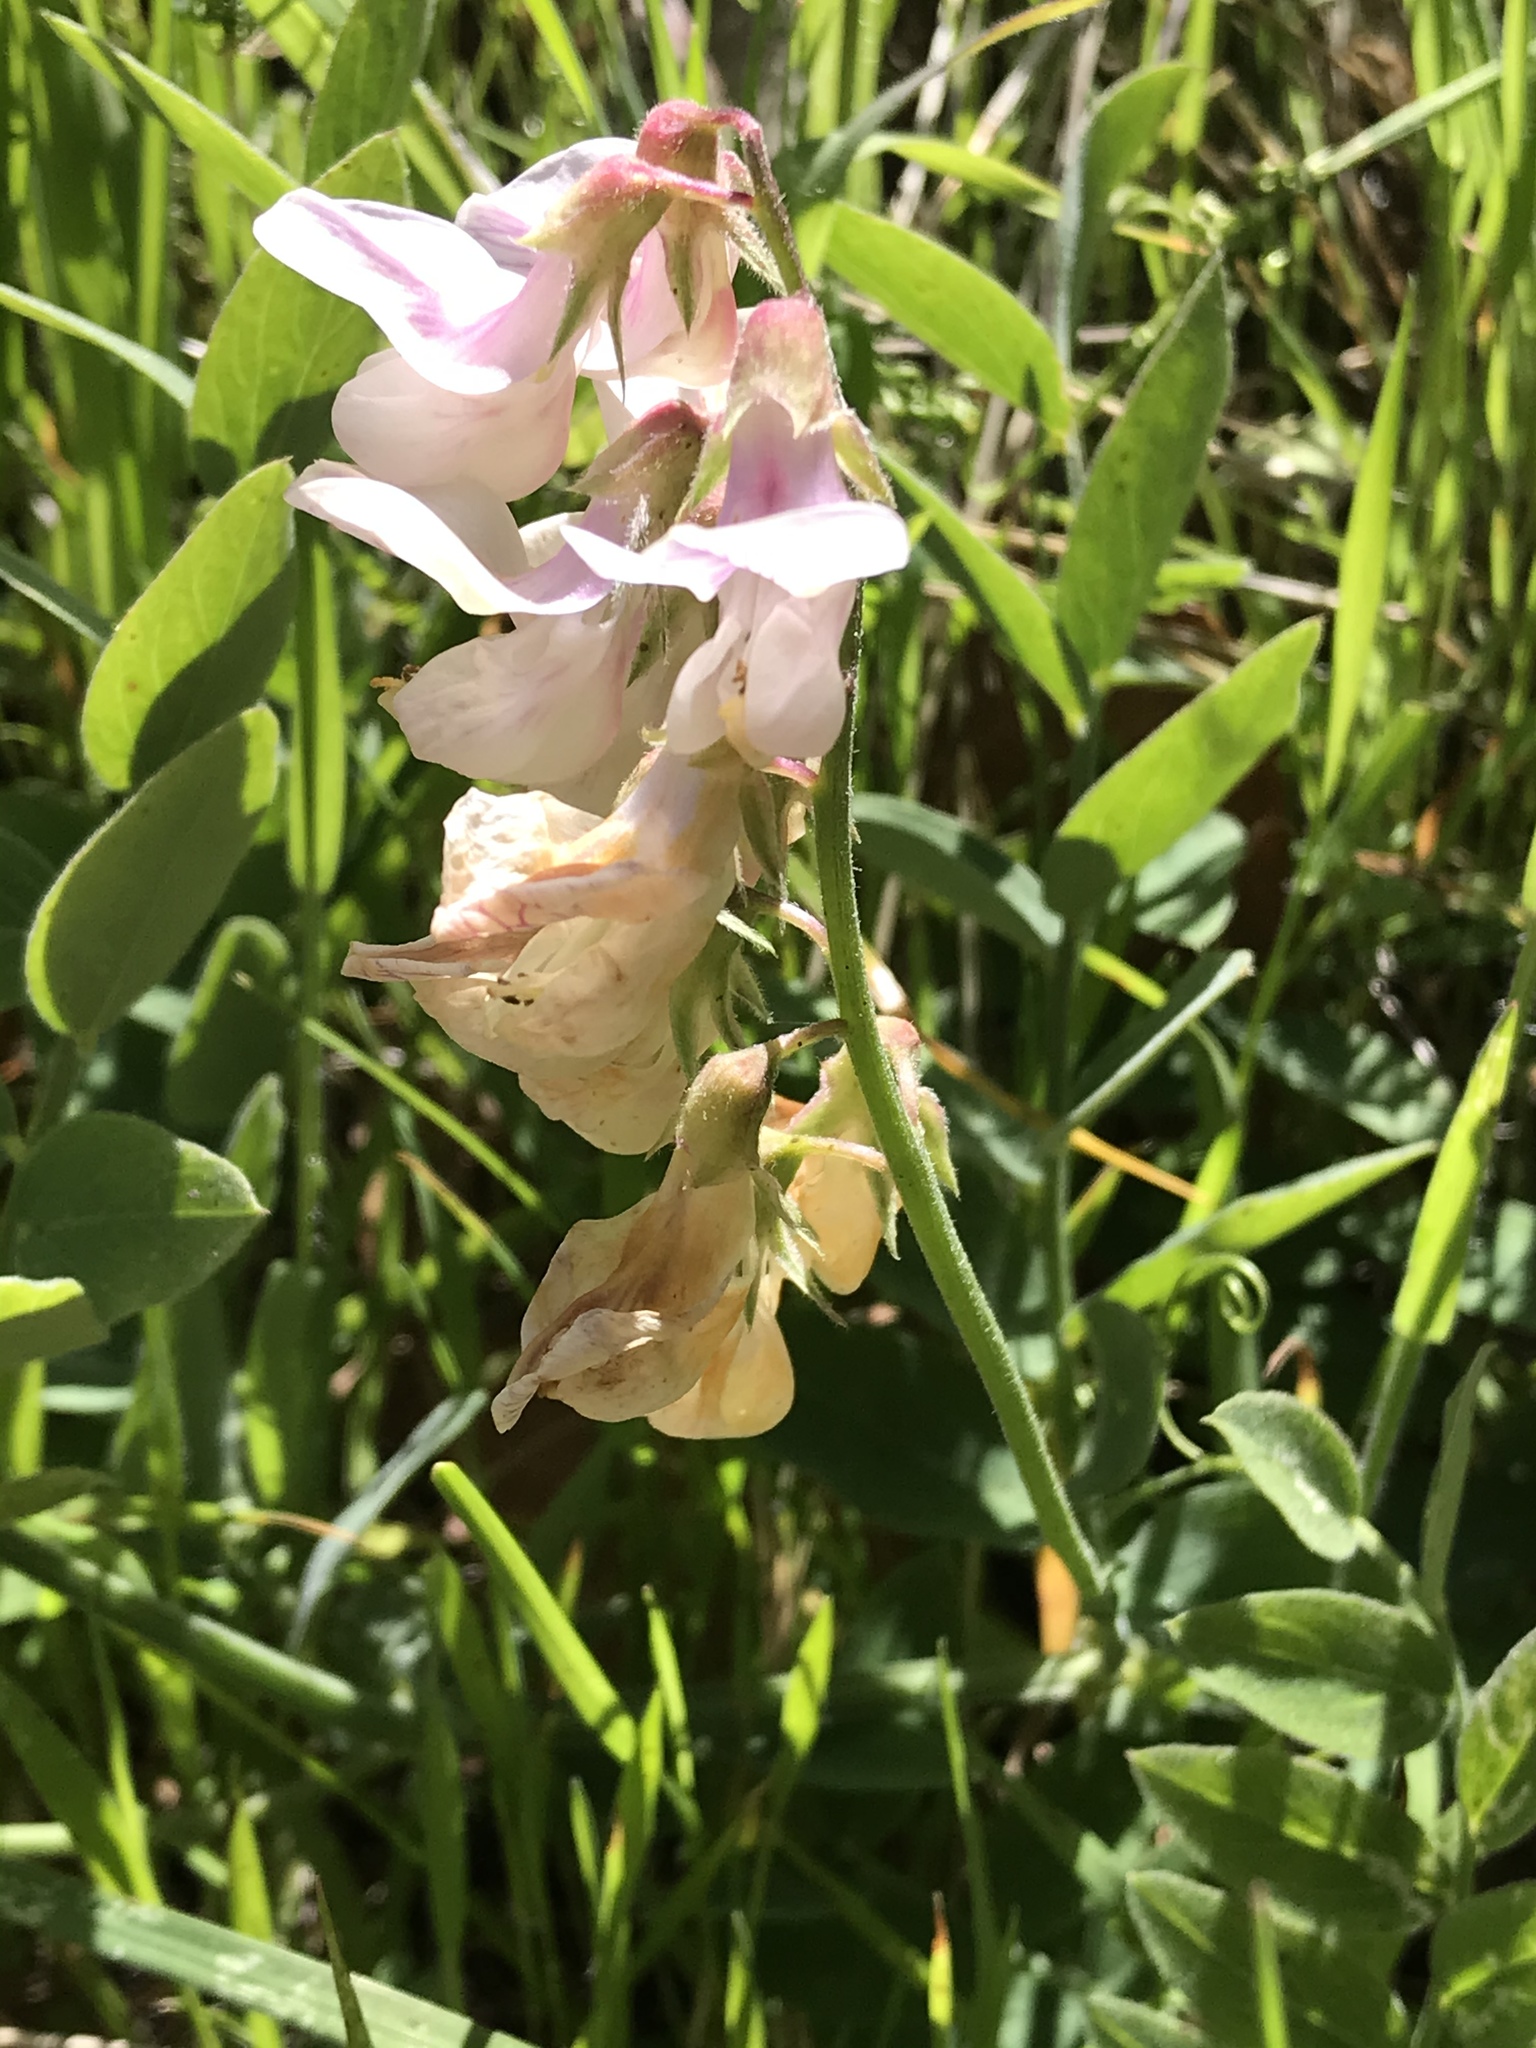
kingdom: Plantae
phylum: Tracheophyta
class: Magnoliopsida
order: Fabales
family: Fabaceae
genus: Lathyrus
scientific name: Lathyrus vestitus
